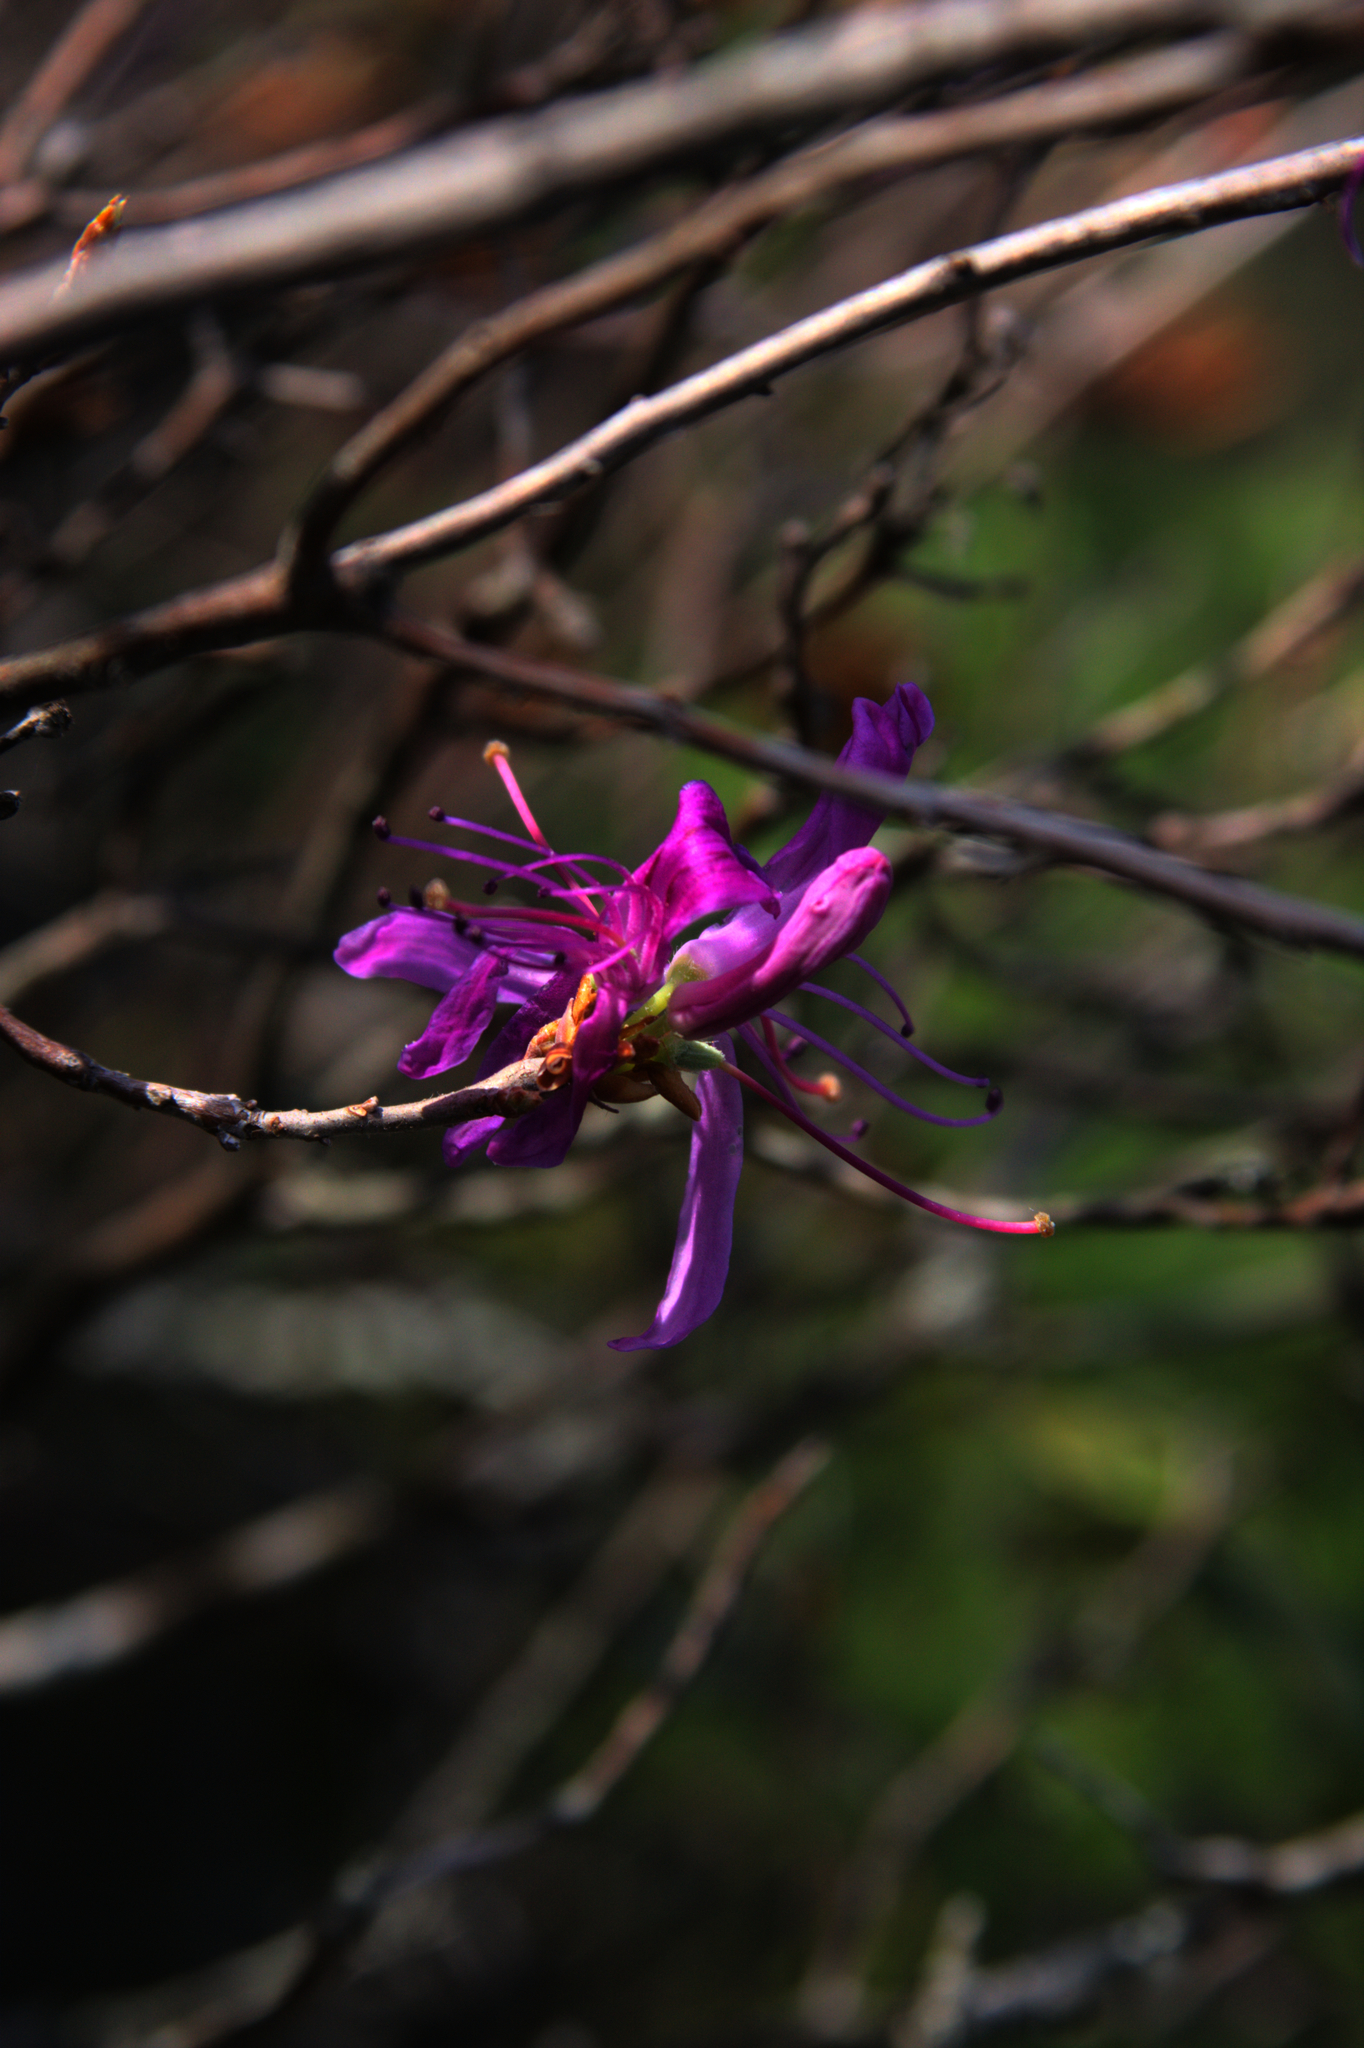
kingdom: Plantae
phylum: Tracheophyta
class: Magnoliopsida
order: Ericales
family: Ericaceae
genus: Rhododendron
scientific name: Rhododendron canadense
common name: Rhodora
